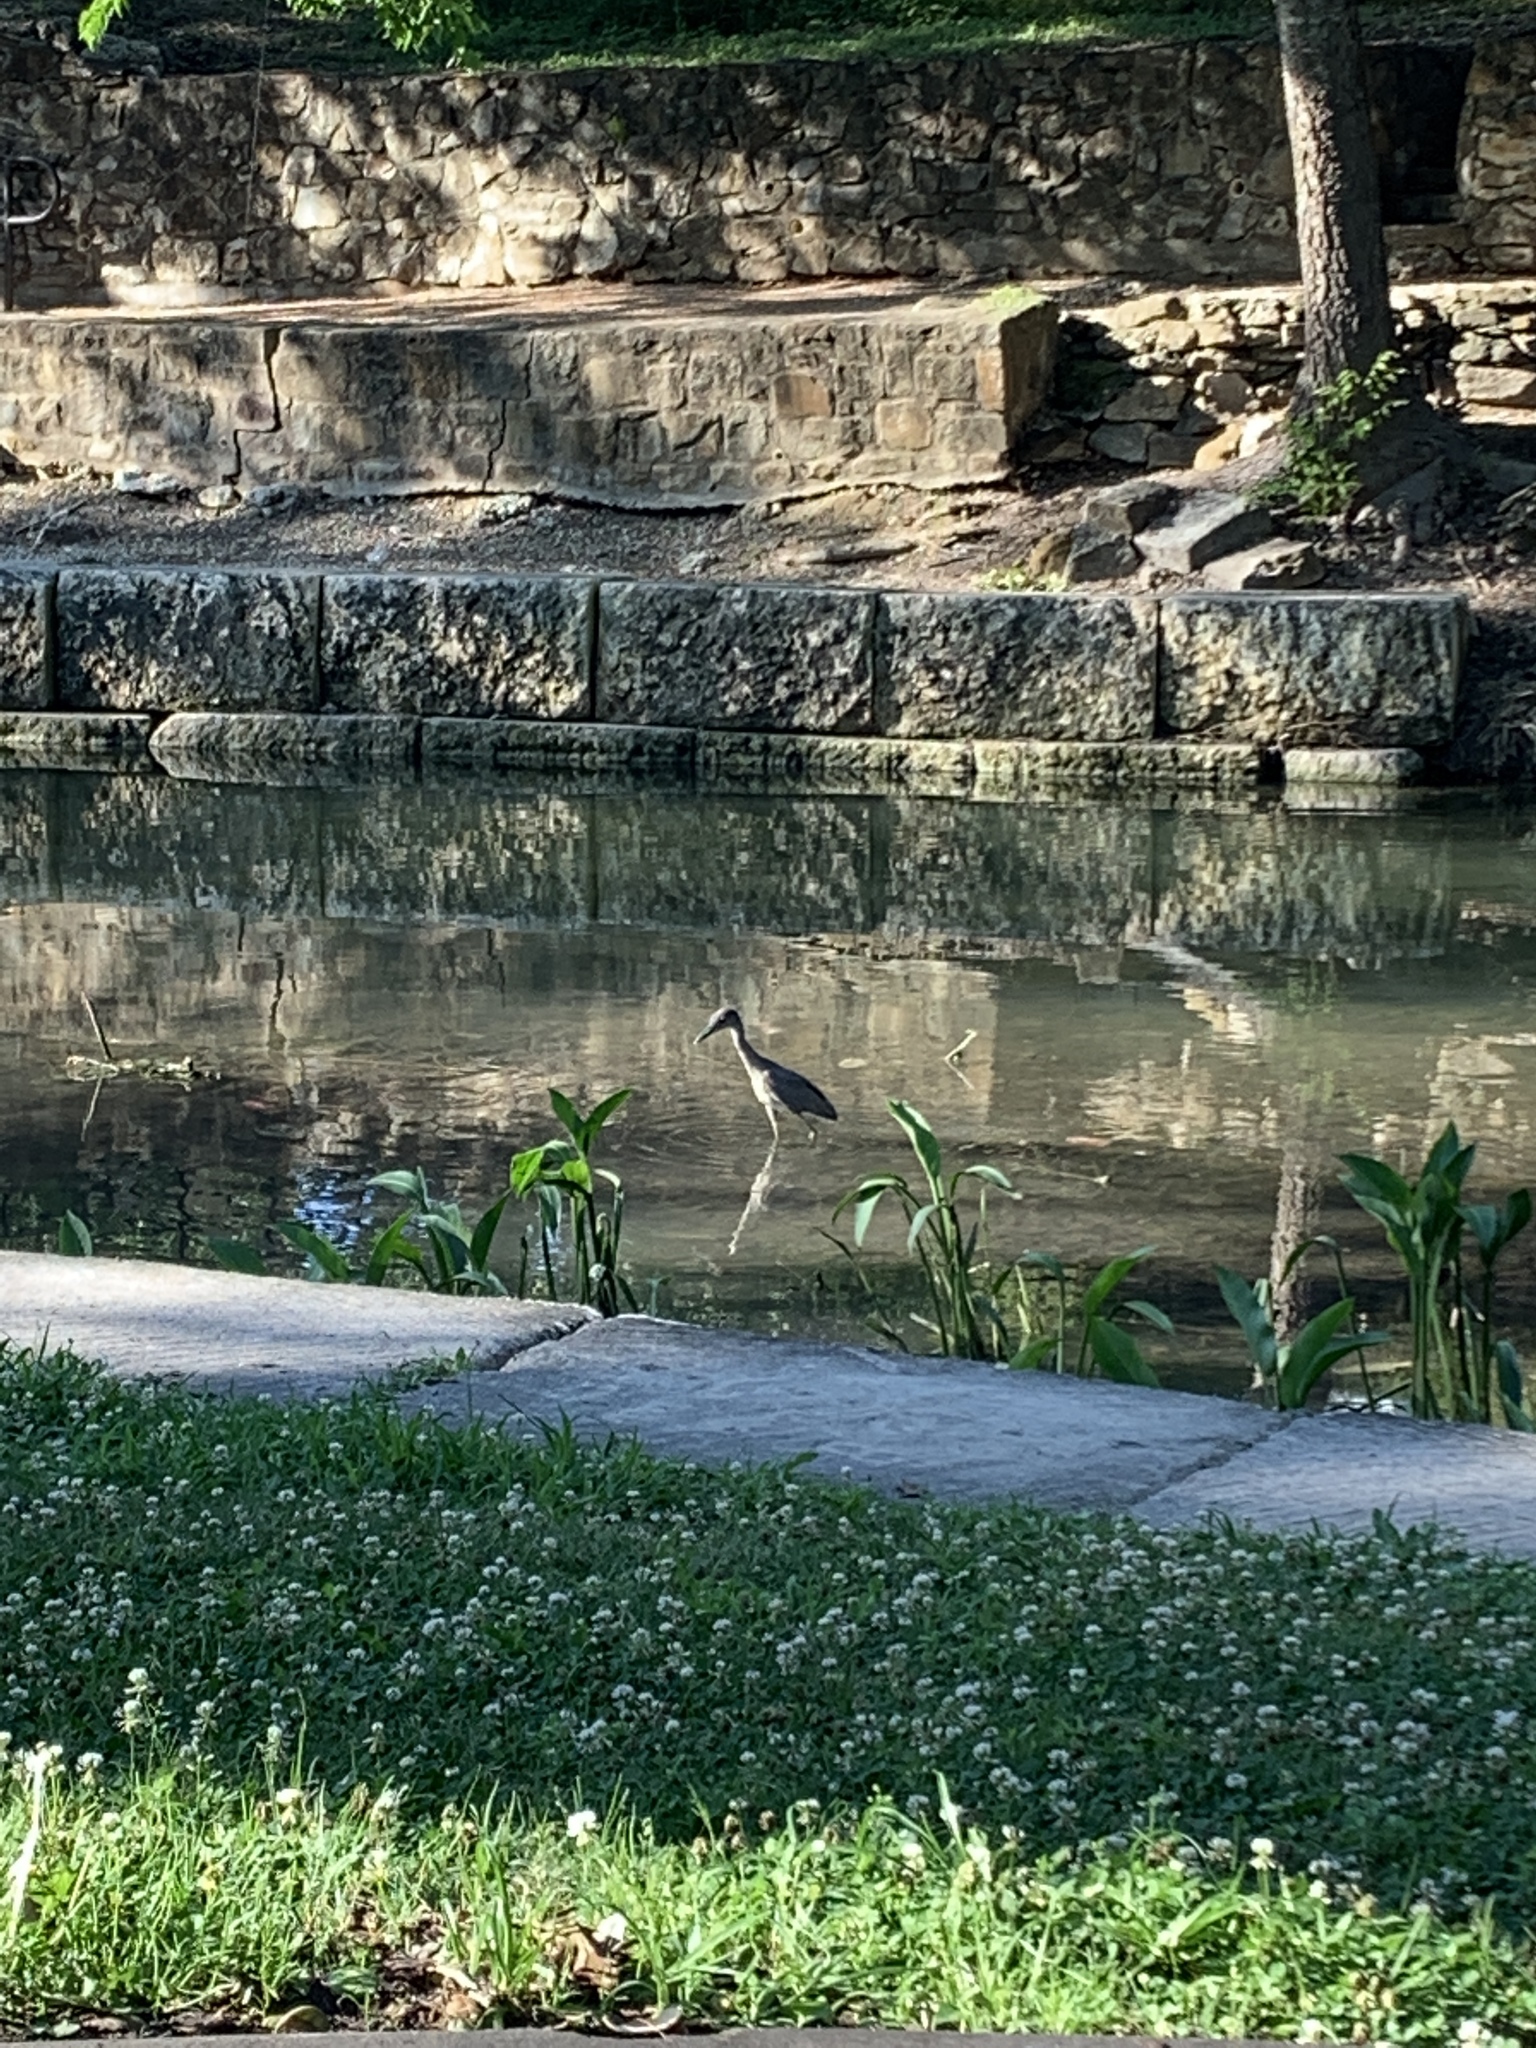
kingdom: Animalia
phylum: Chordata
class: Aves
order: Pelecaniformes
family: Ardeidae
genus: Egretta
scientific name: Egretta caerulea
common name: Little blue heron
